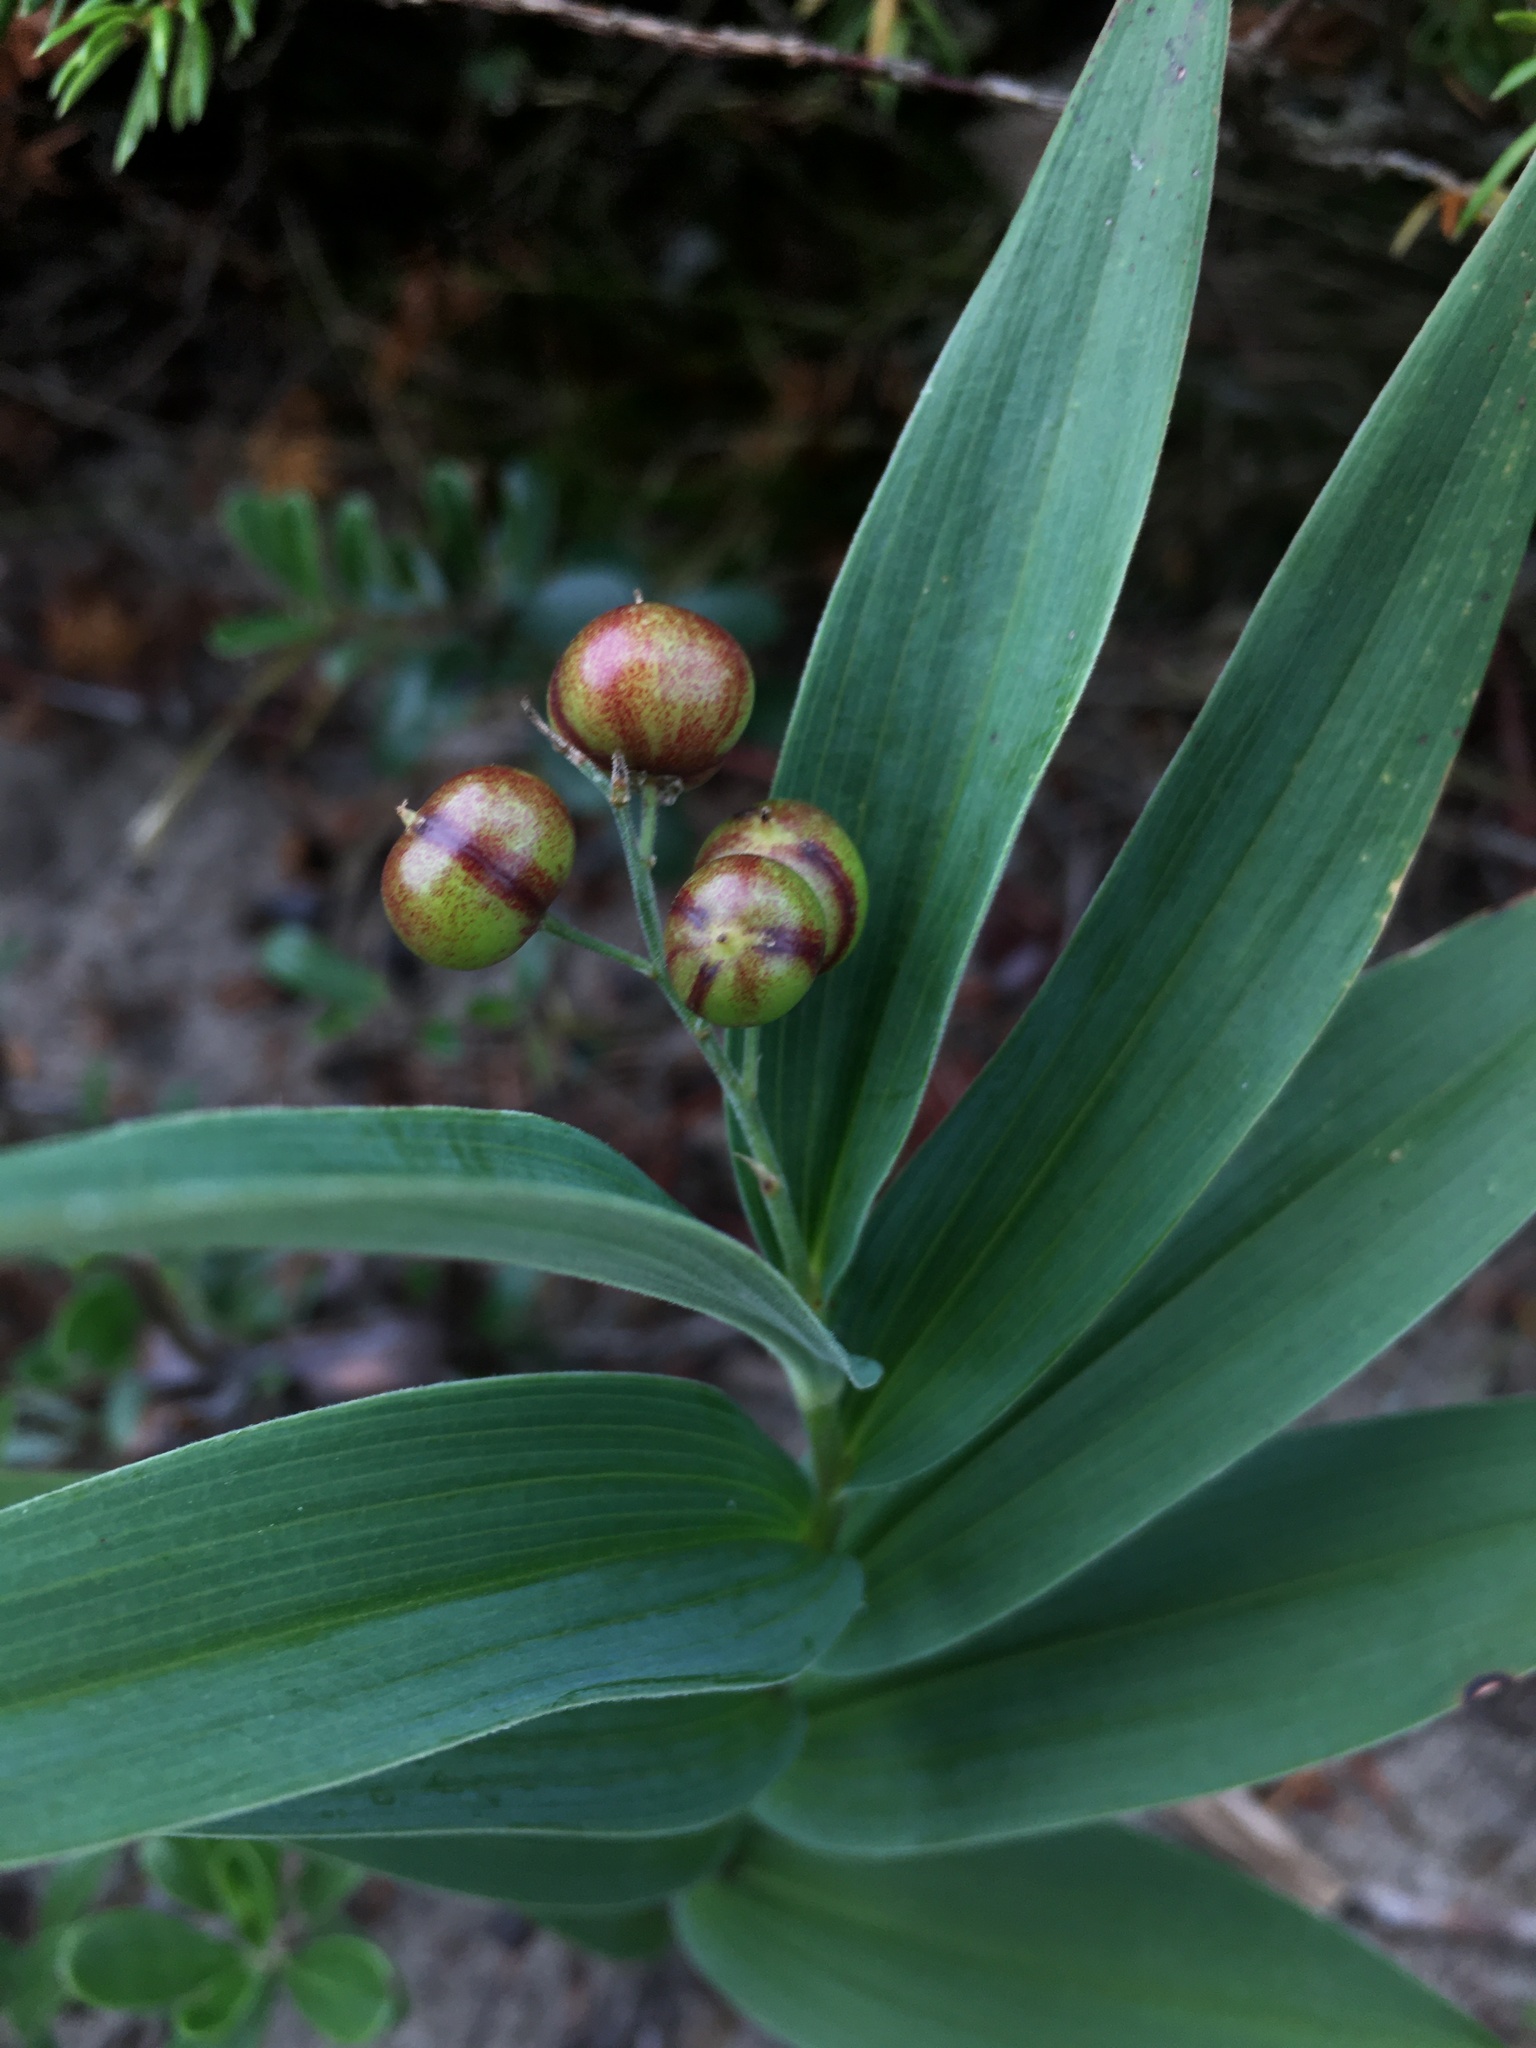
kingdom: Plantae
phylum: Tracheophyta
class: Liliopsida
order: Asparagales
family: Asparagaceae
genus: Maianthemum
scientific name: Maianthemum stellatum
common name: Little false solomon's seal
